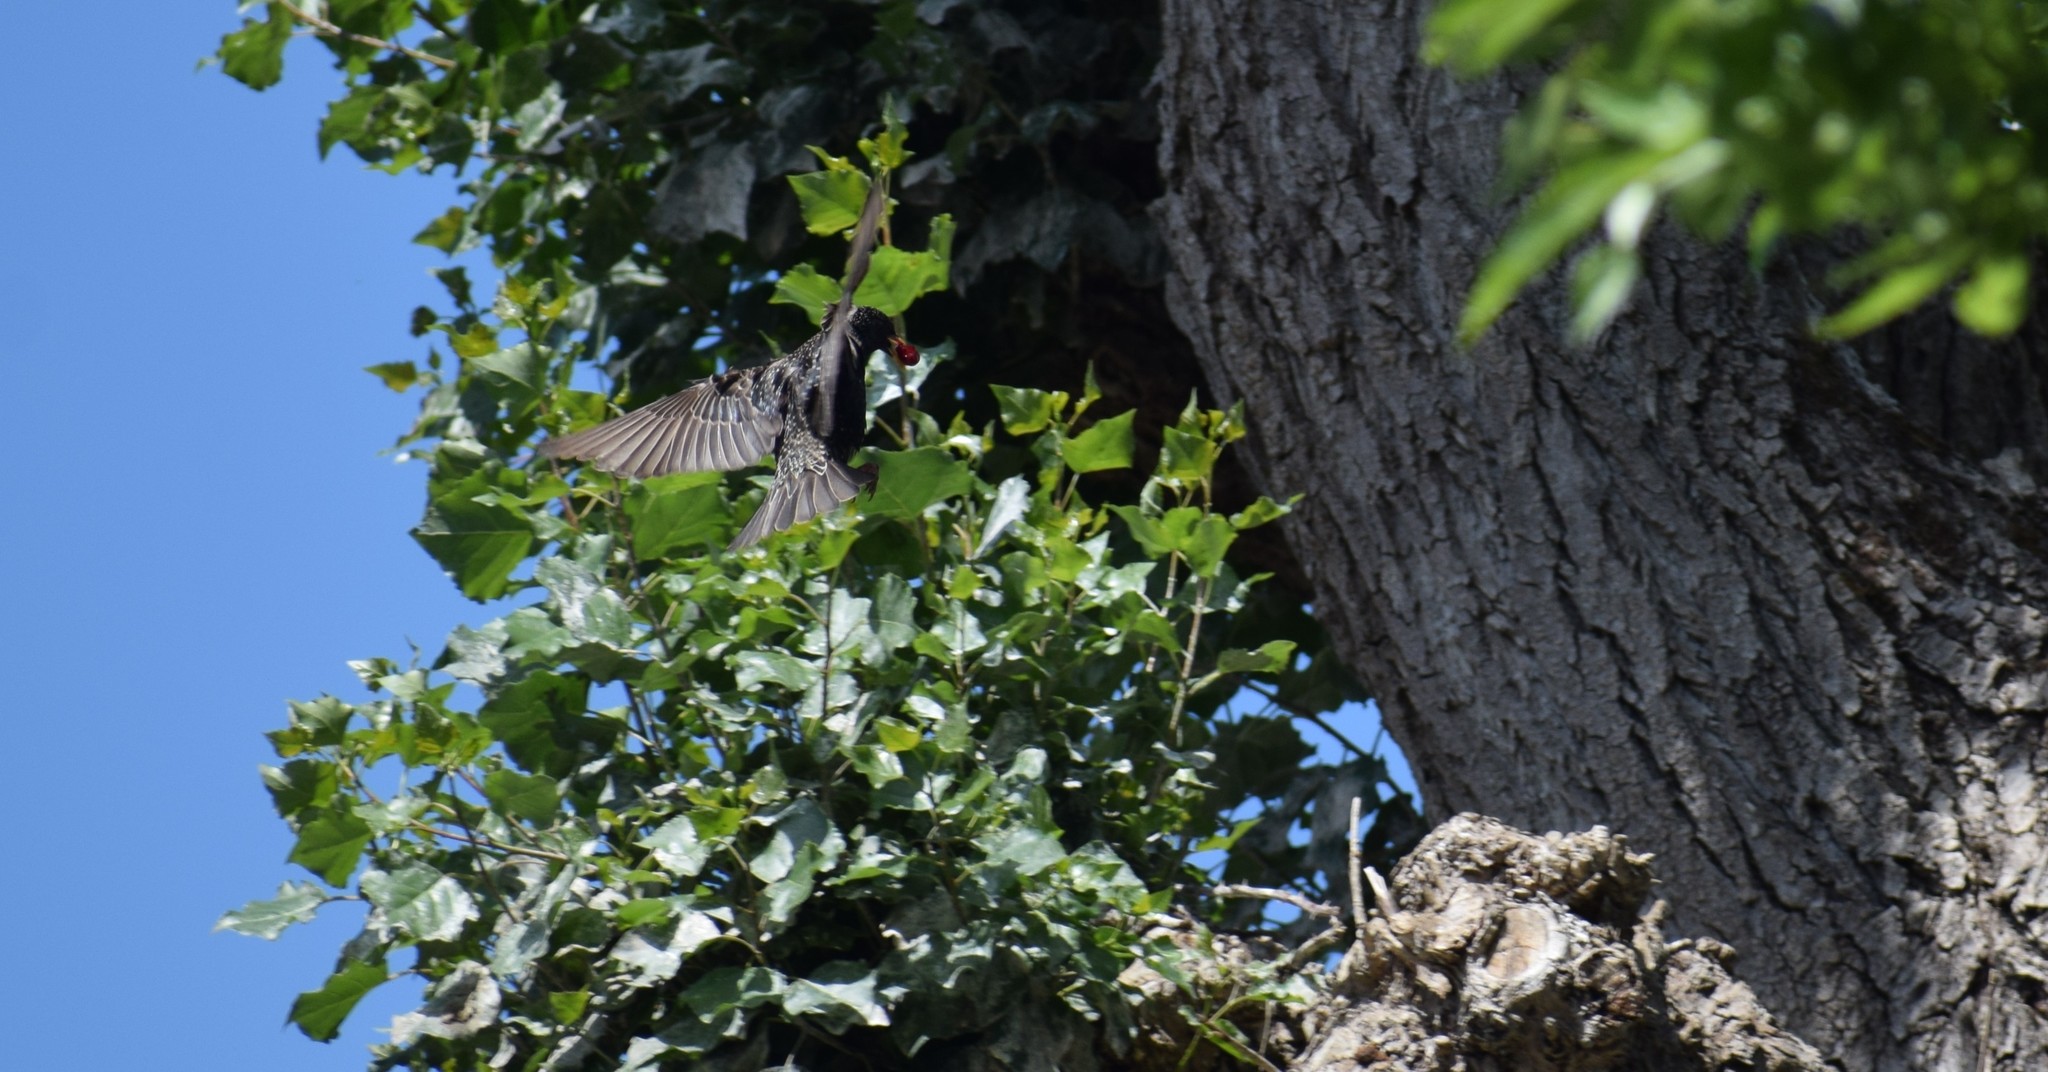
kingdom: Animalia
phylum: Chordata
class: Aves
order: Passeriformes
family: Sturnidae
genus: Sturnus
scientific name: Sturnus vulgaris
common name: Common starling
